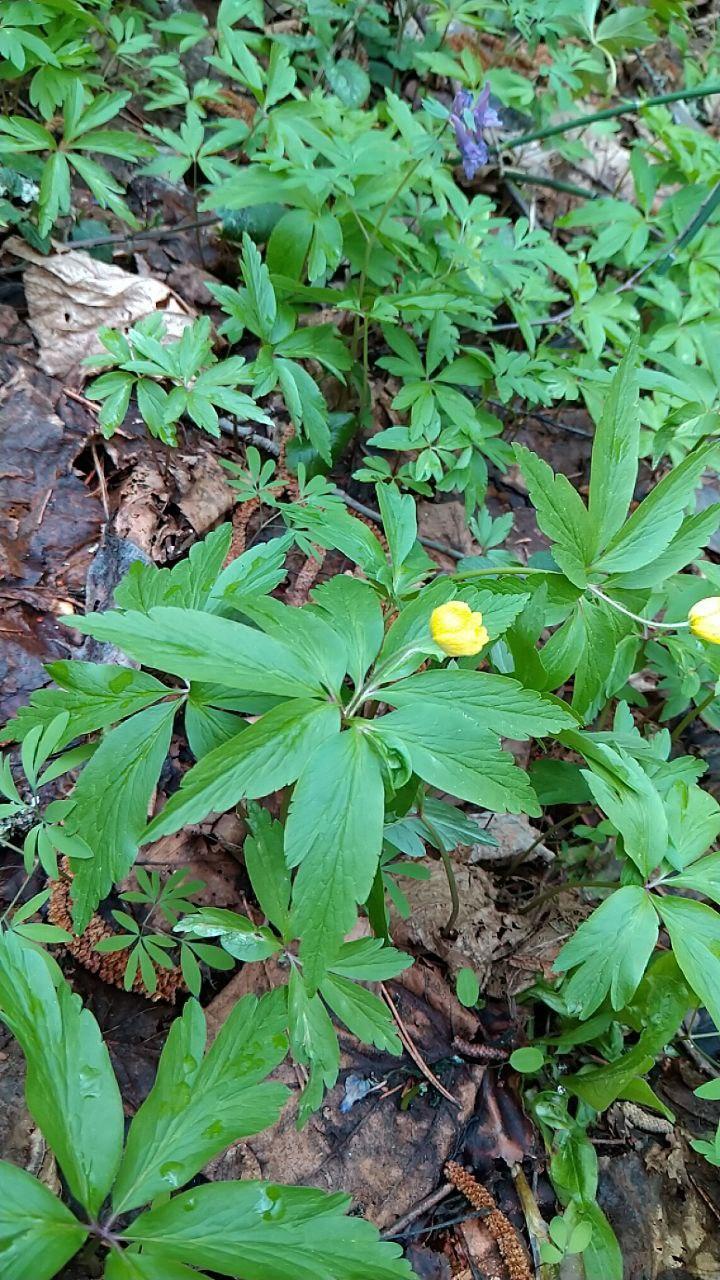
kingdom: Plantae
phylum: Tracheophyta
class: Magnoliopsida
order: Ranunculales
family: Ranunculaceae
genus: Anemone
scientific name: Anemone ranunculoides
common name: Yellow anemone
